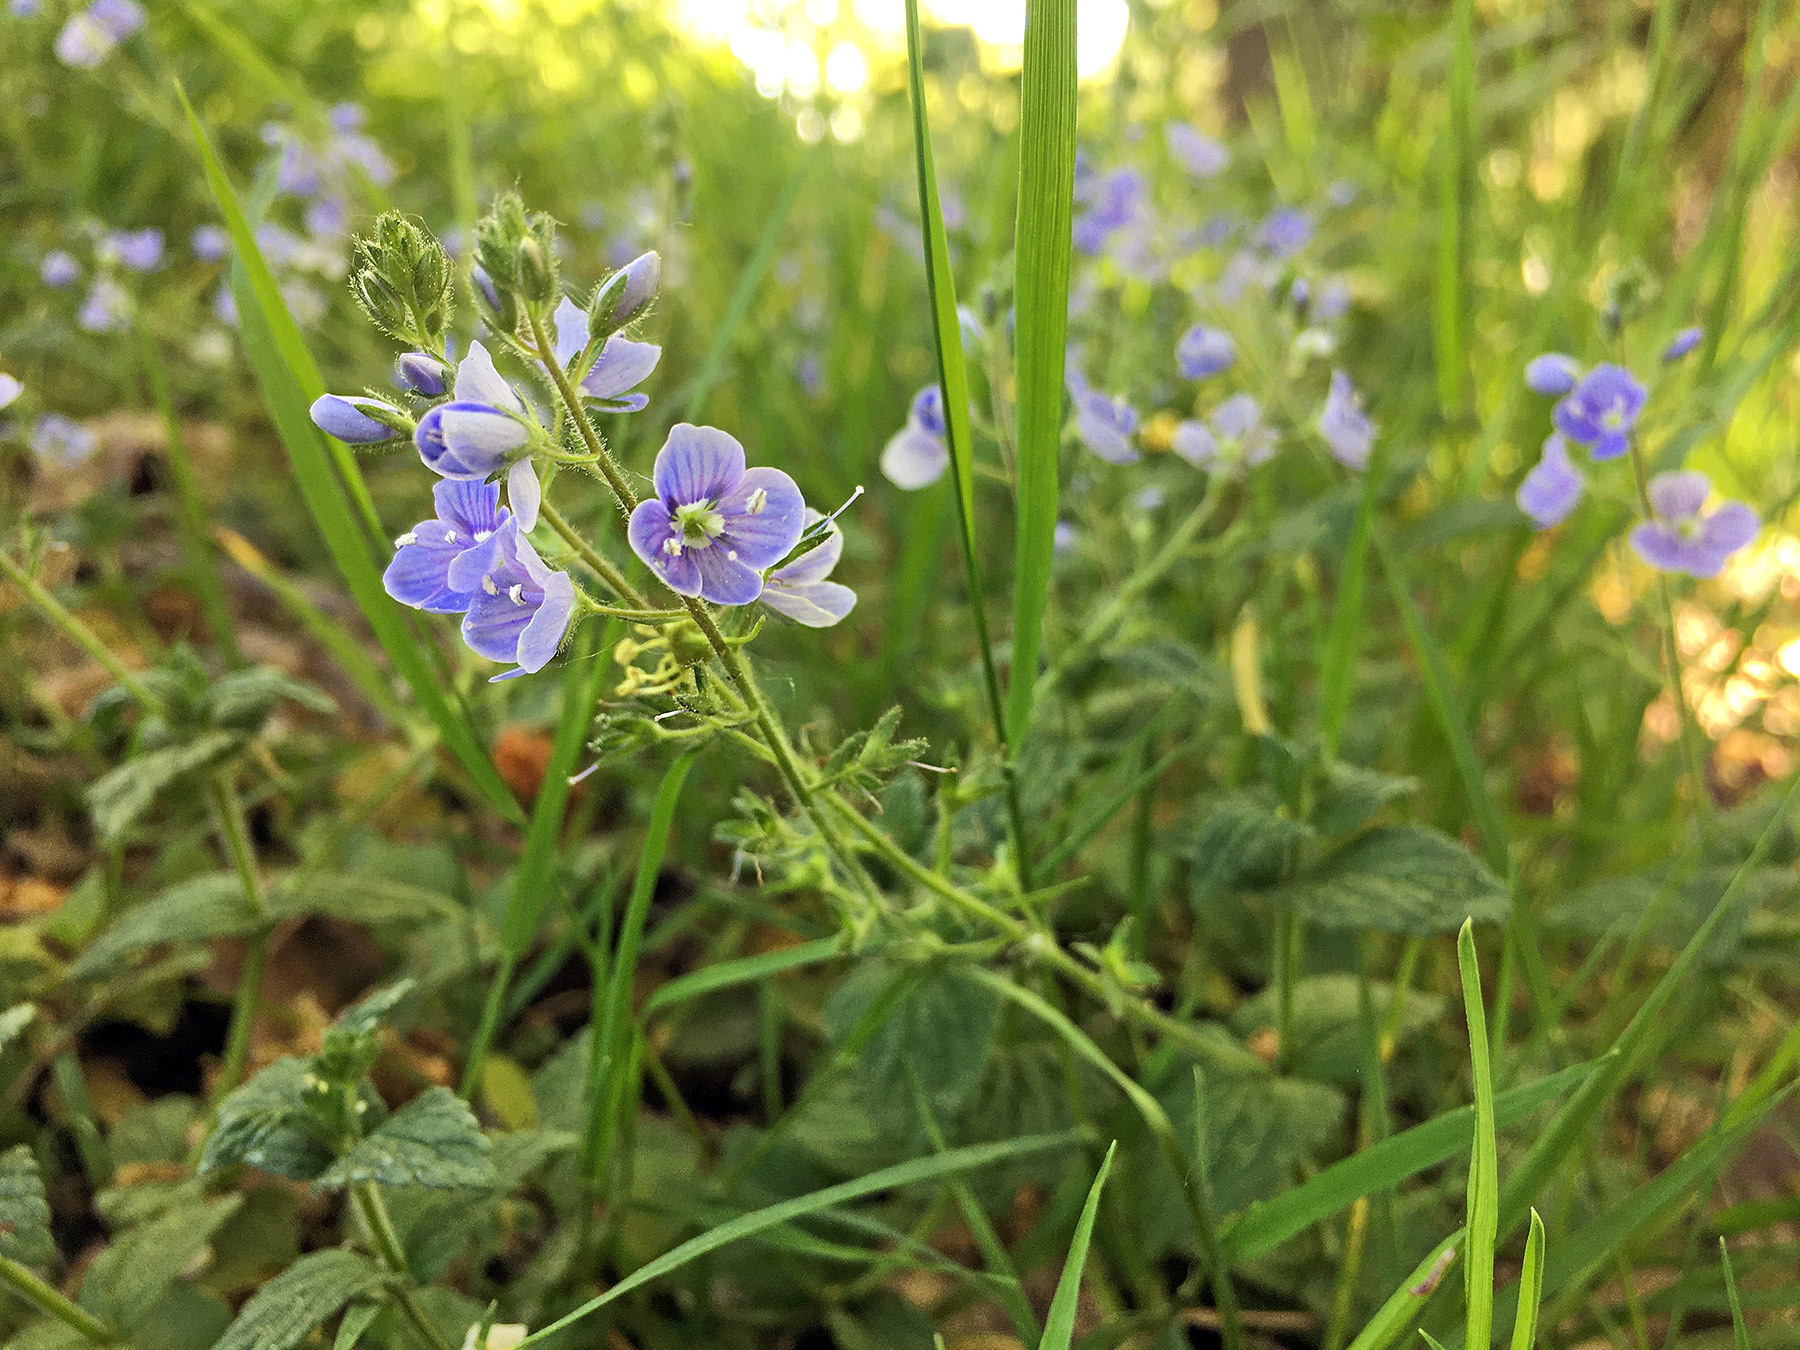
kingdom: Plantae
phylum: Tracheophyta
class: Magnoliopsida
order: Lamiales
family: Plantaginaceae
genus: Veronica
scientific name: Veronica chamaedrys
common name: Germander speedwell
